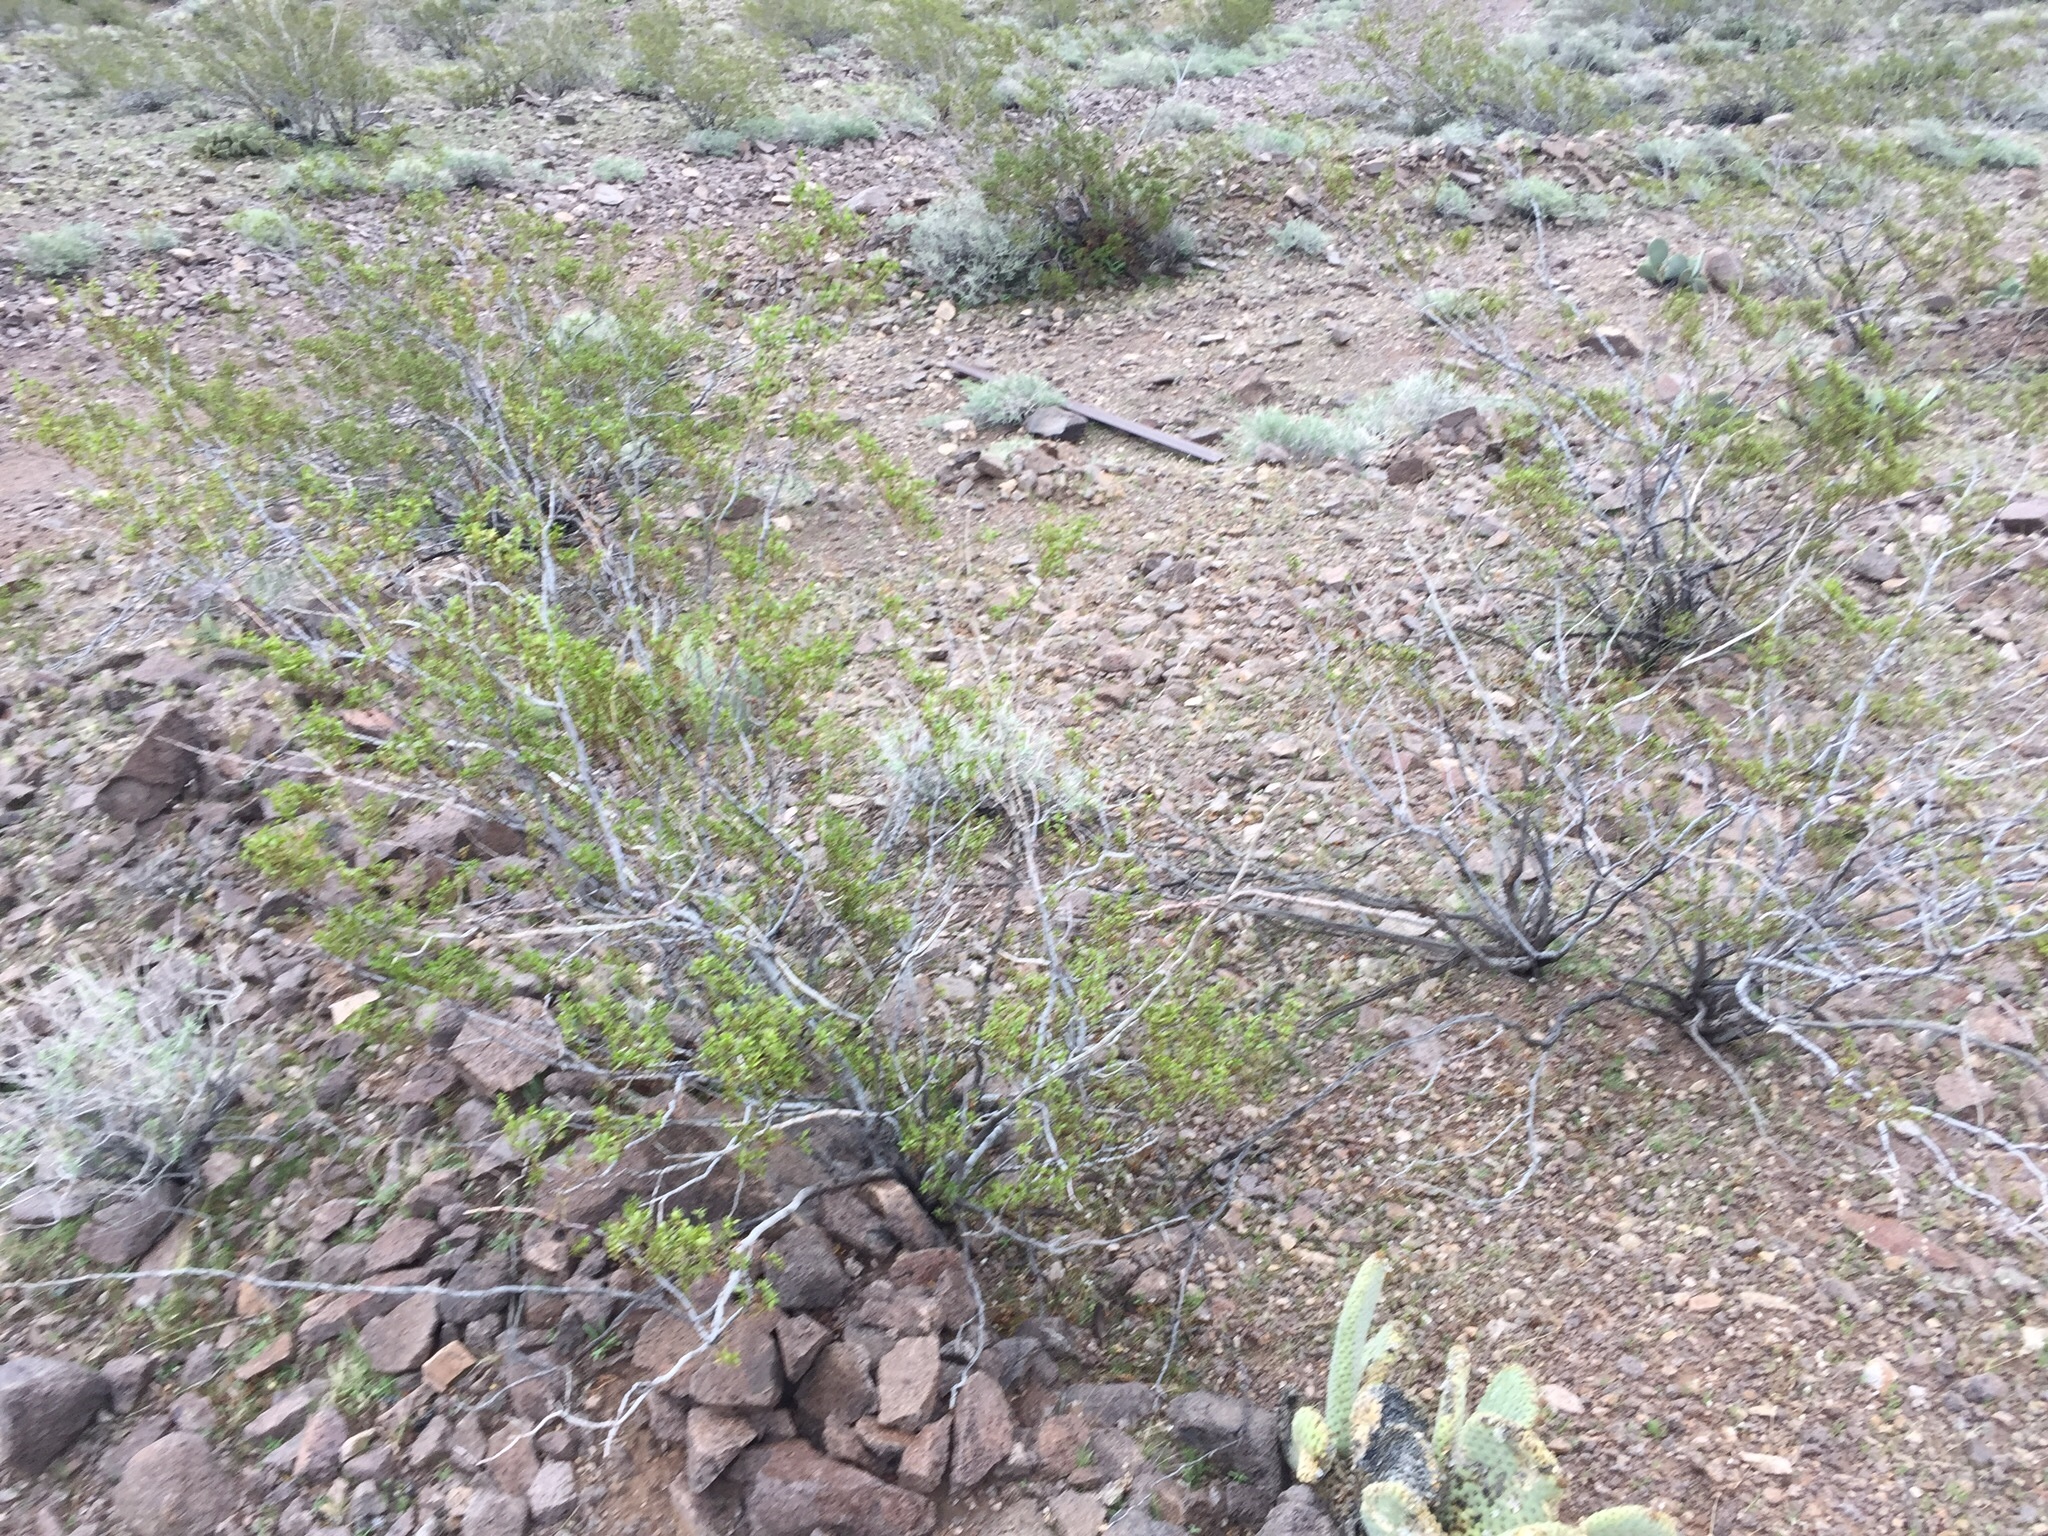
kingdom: Plantae
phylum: Tracheophyta
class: Magnoliopsida
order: Zygophyllales
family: Zygophyllaceae
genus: Larrea
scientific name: Larrea tridentata
